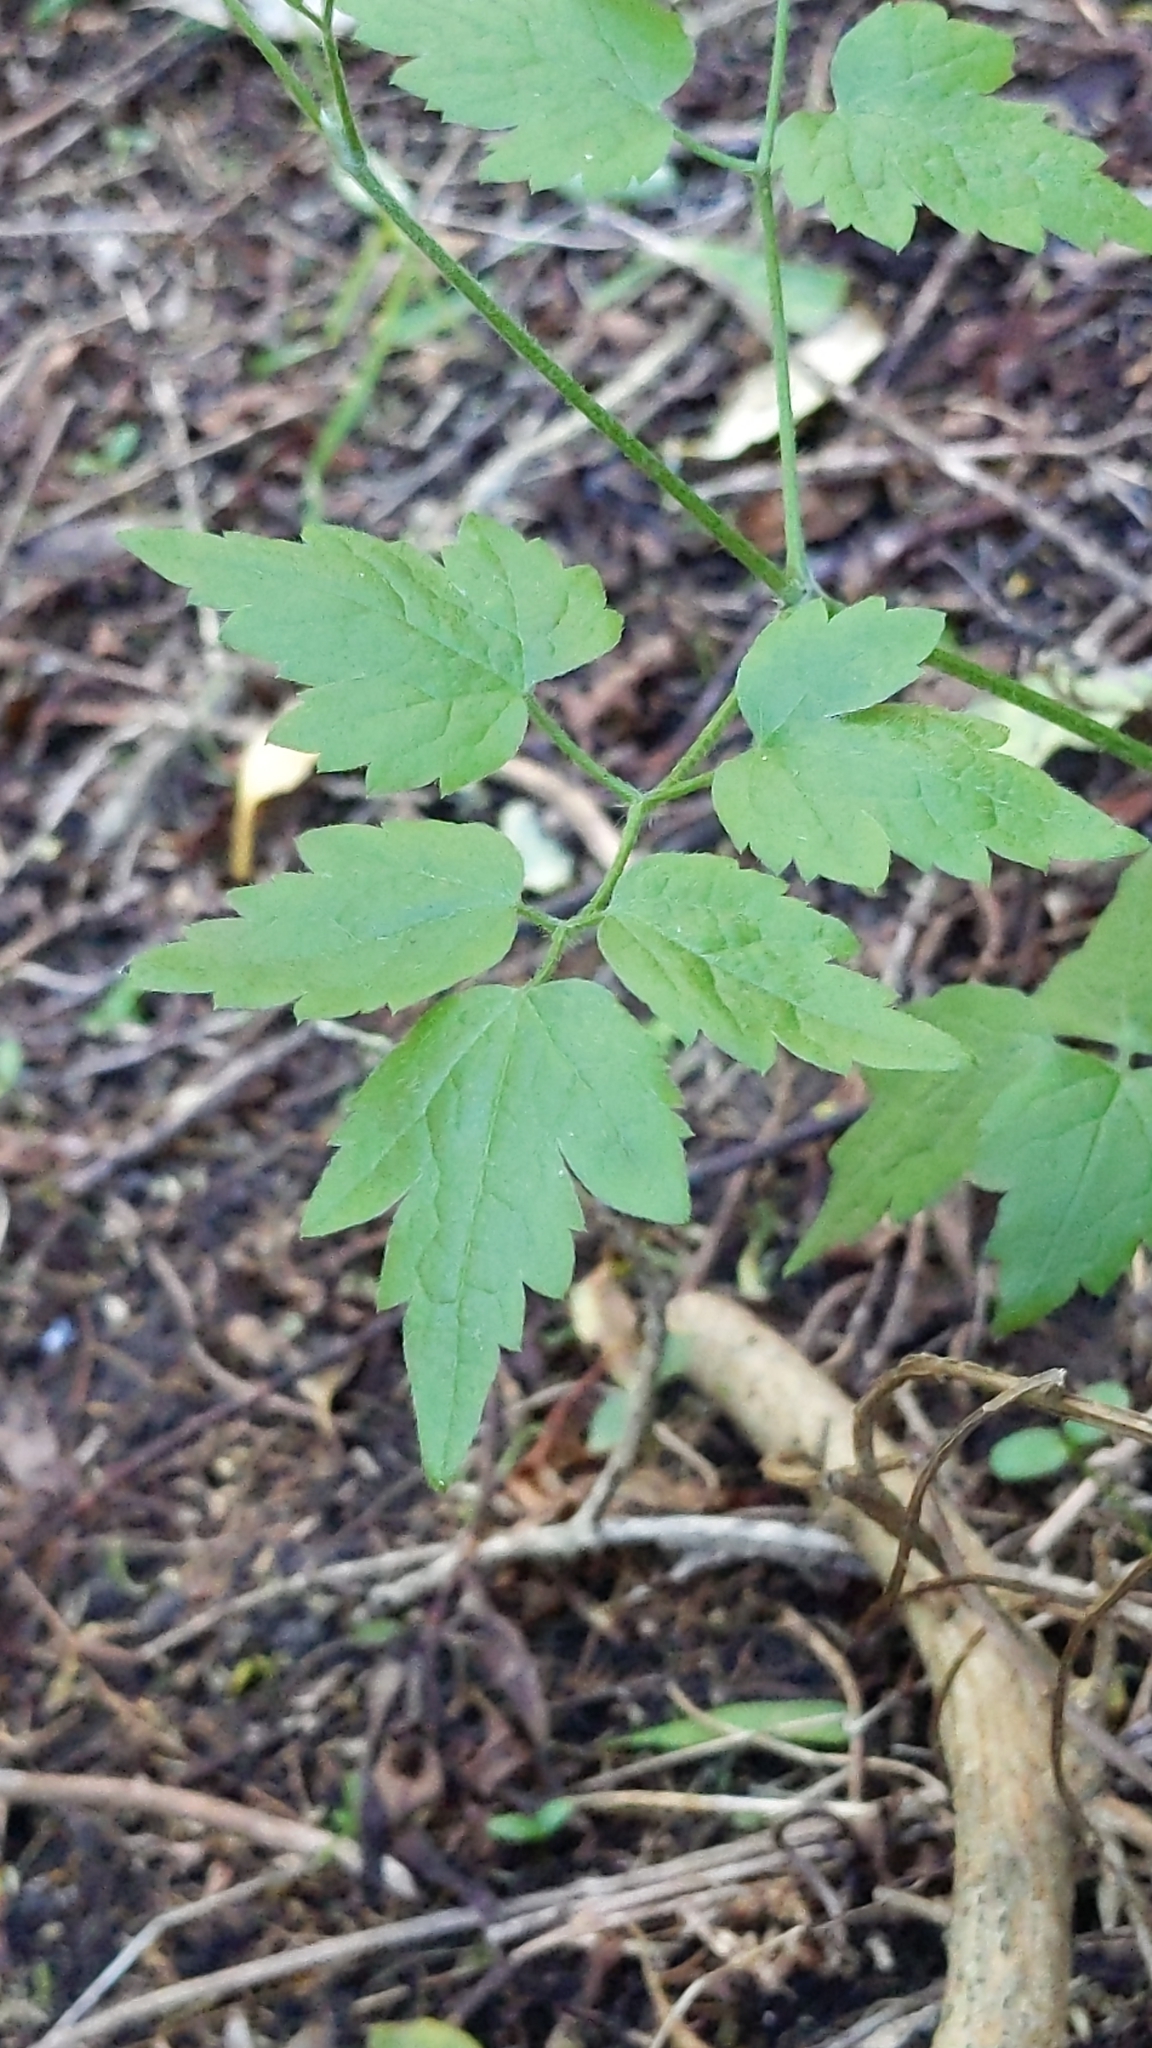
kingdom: Plantae
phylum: Tracheophyta
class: Magnoliopsida
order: Ranunculales
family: Ranunculaceae
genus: Clematis
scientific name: Clematis vitalba
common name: Evergreen clematis
